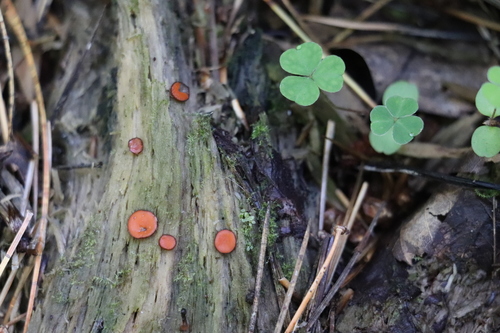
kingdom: Fungi
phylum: Ascomycota
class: Pezizomycetes
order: Pezizales
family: Pyronemataceae
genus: Scutellinia
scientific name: Scutellinia
